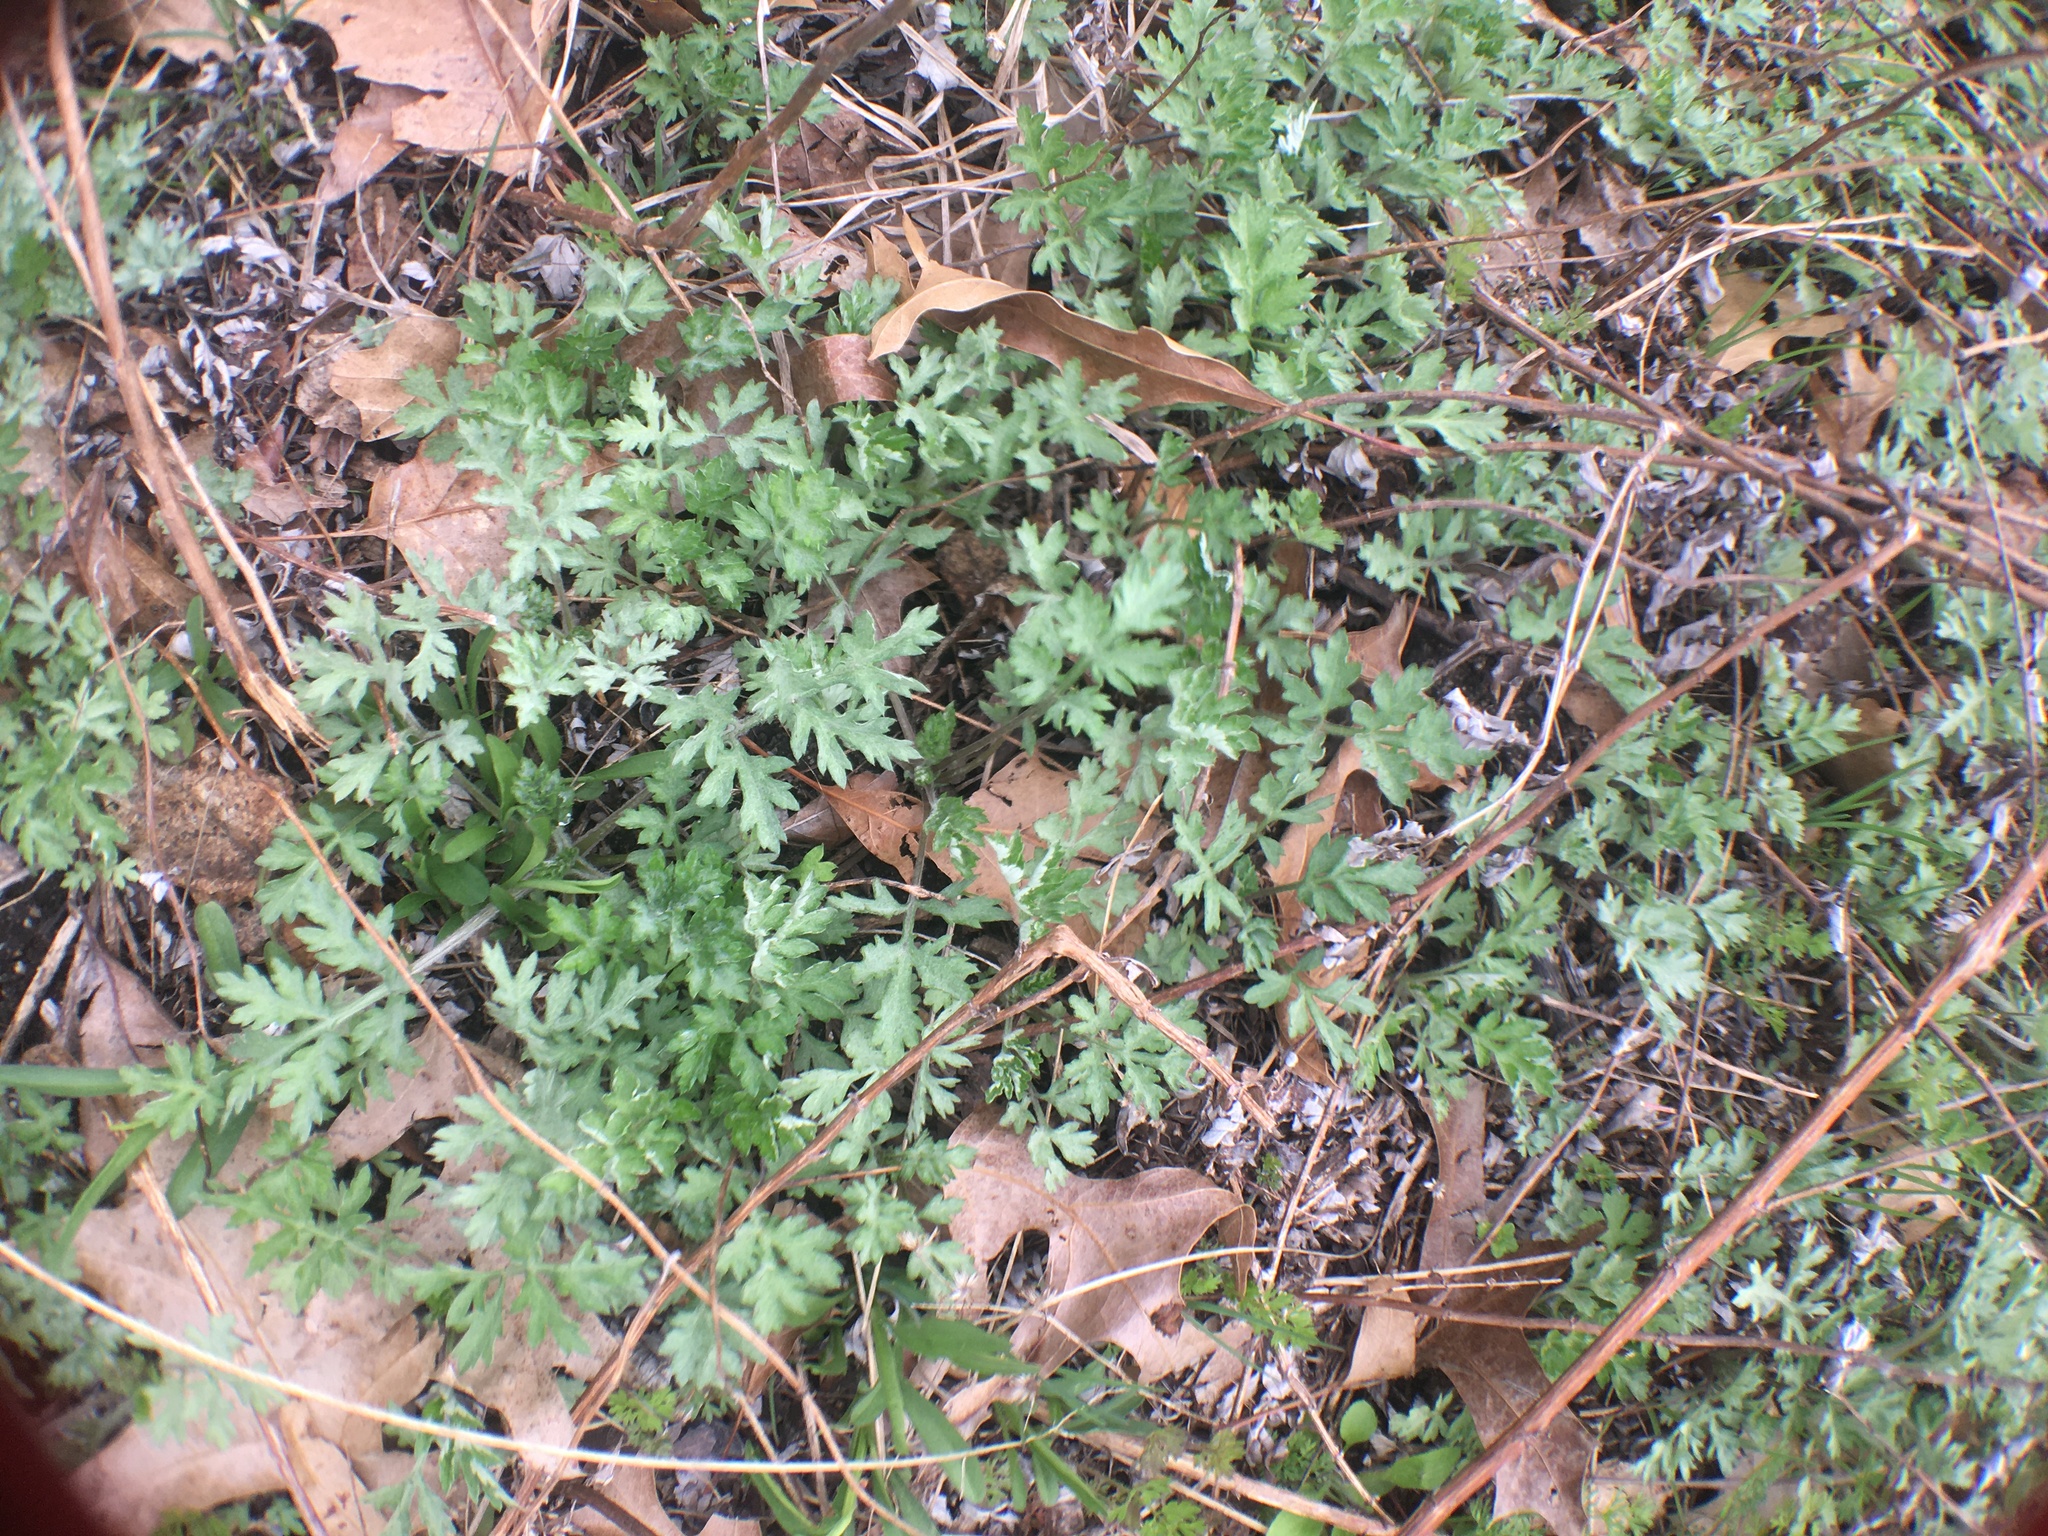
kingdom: Plantae
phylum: Tracheophyta
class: Magnoliopsida
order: Asterales
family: Asteraceae
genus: Artemisia
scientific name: Artemisia vulgaris
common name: Mugwort
